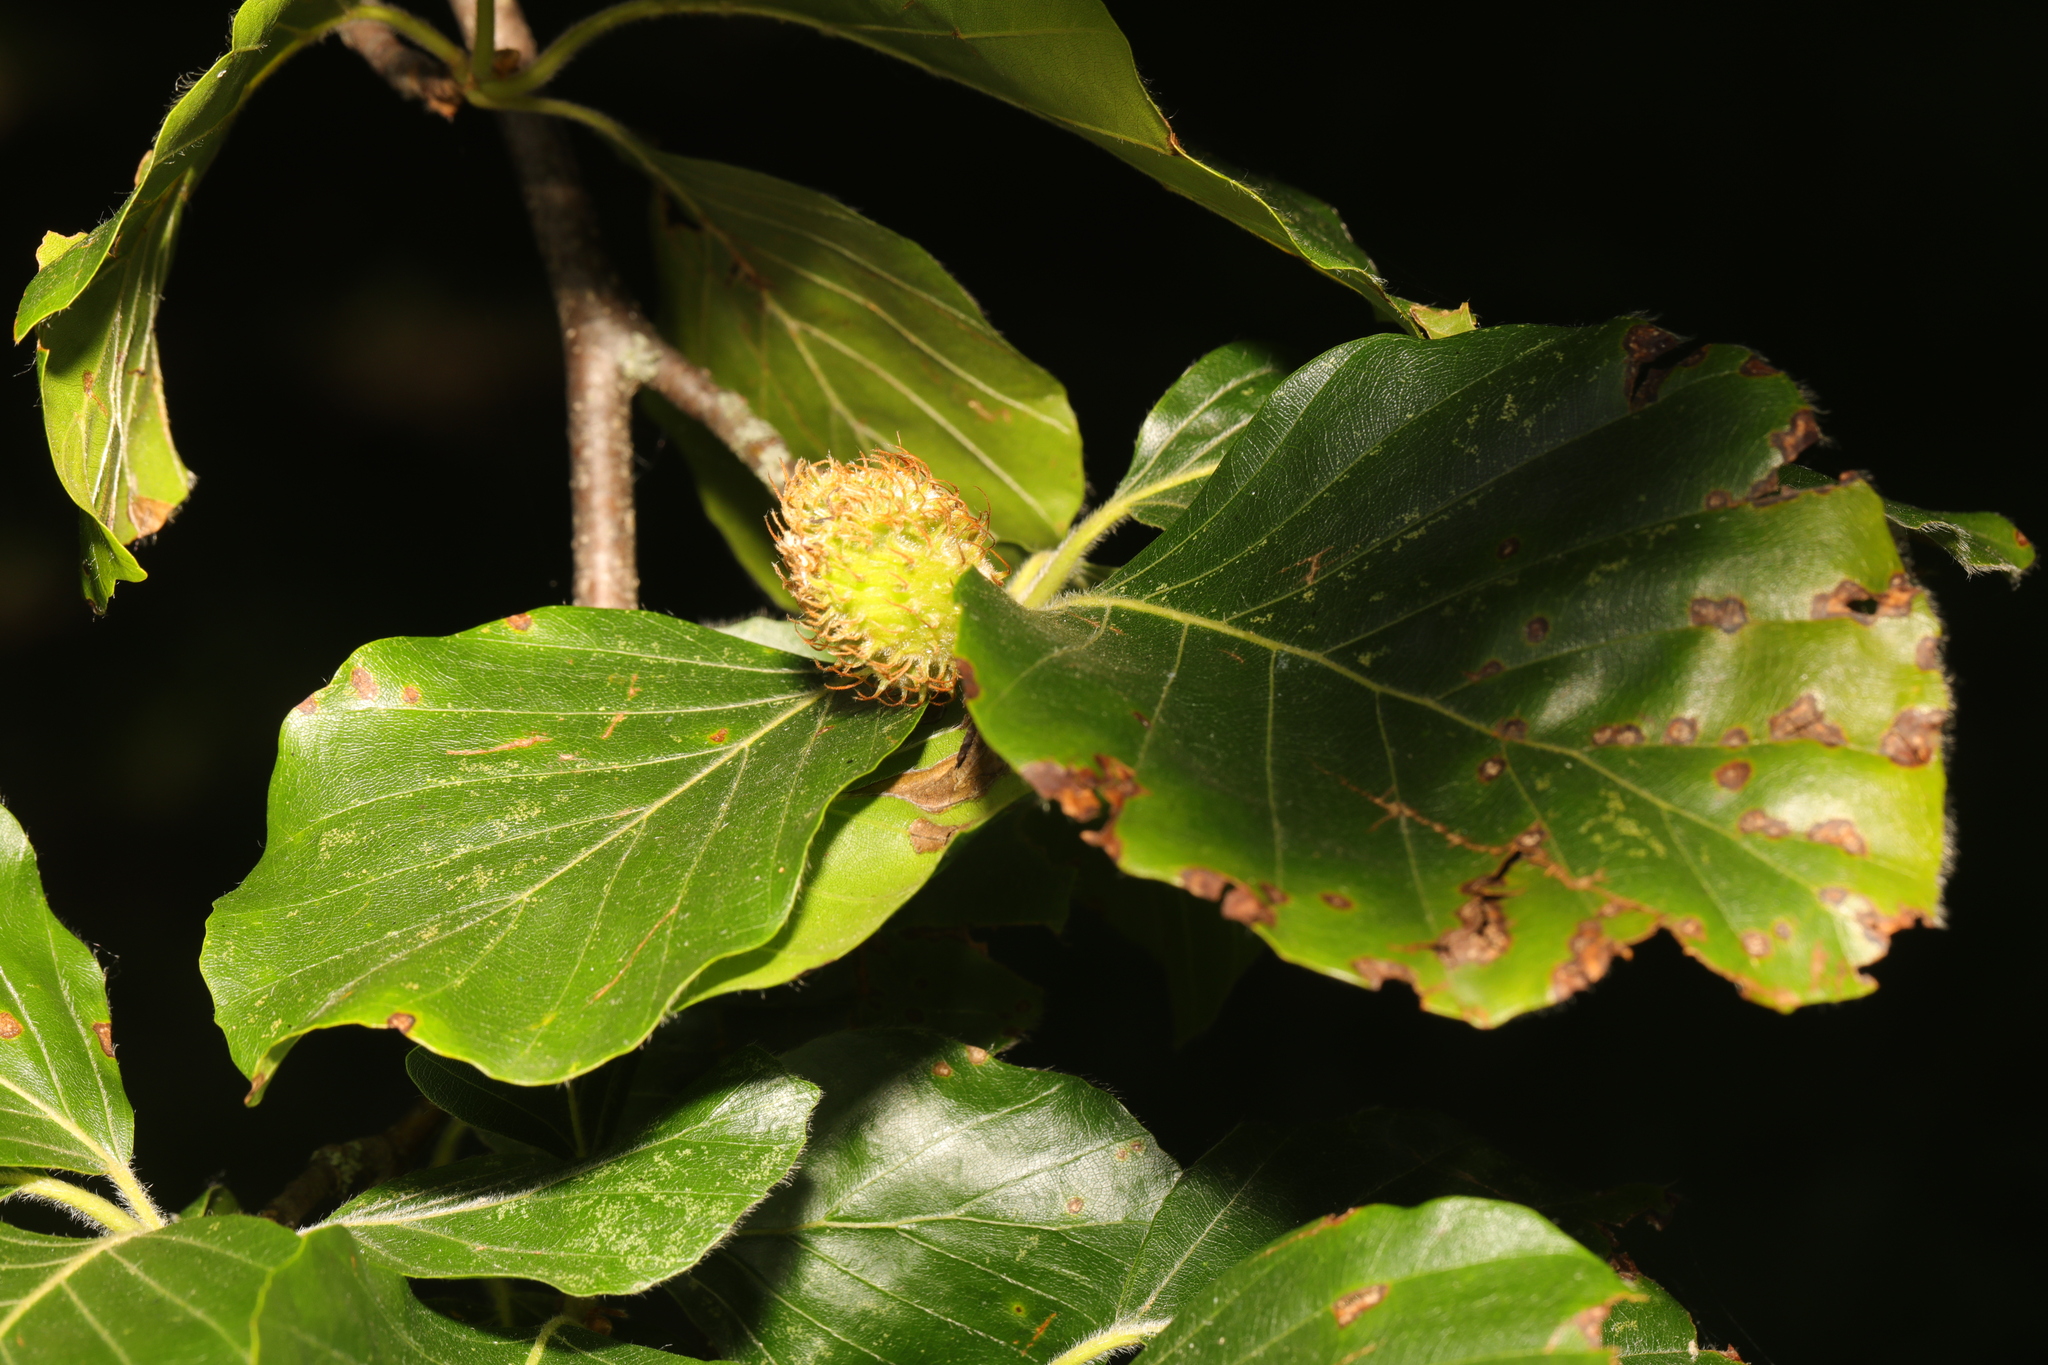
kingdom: Plantae
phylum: Tracheophyta
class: Magnoliopsida
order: Fagales
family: Fagaceae
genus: Fagus
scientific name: Fagus sylvatica
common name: Beech
